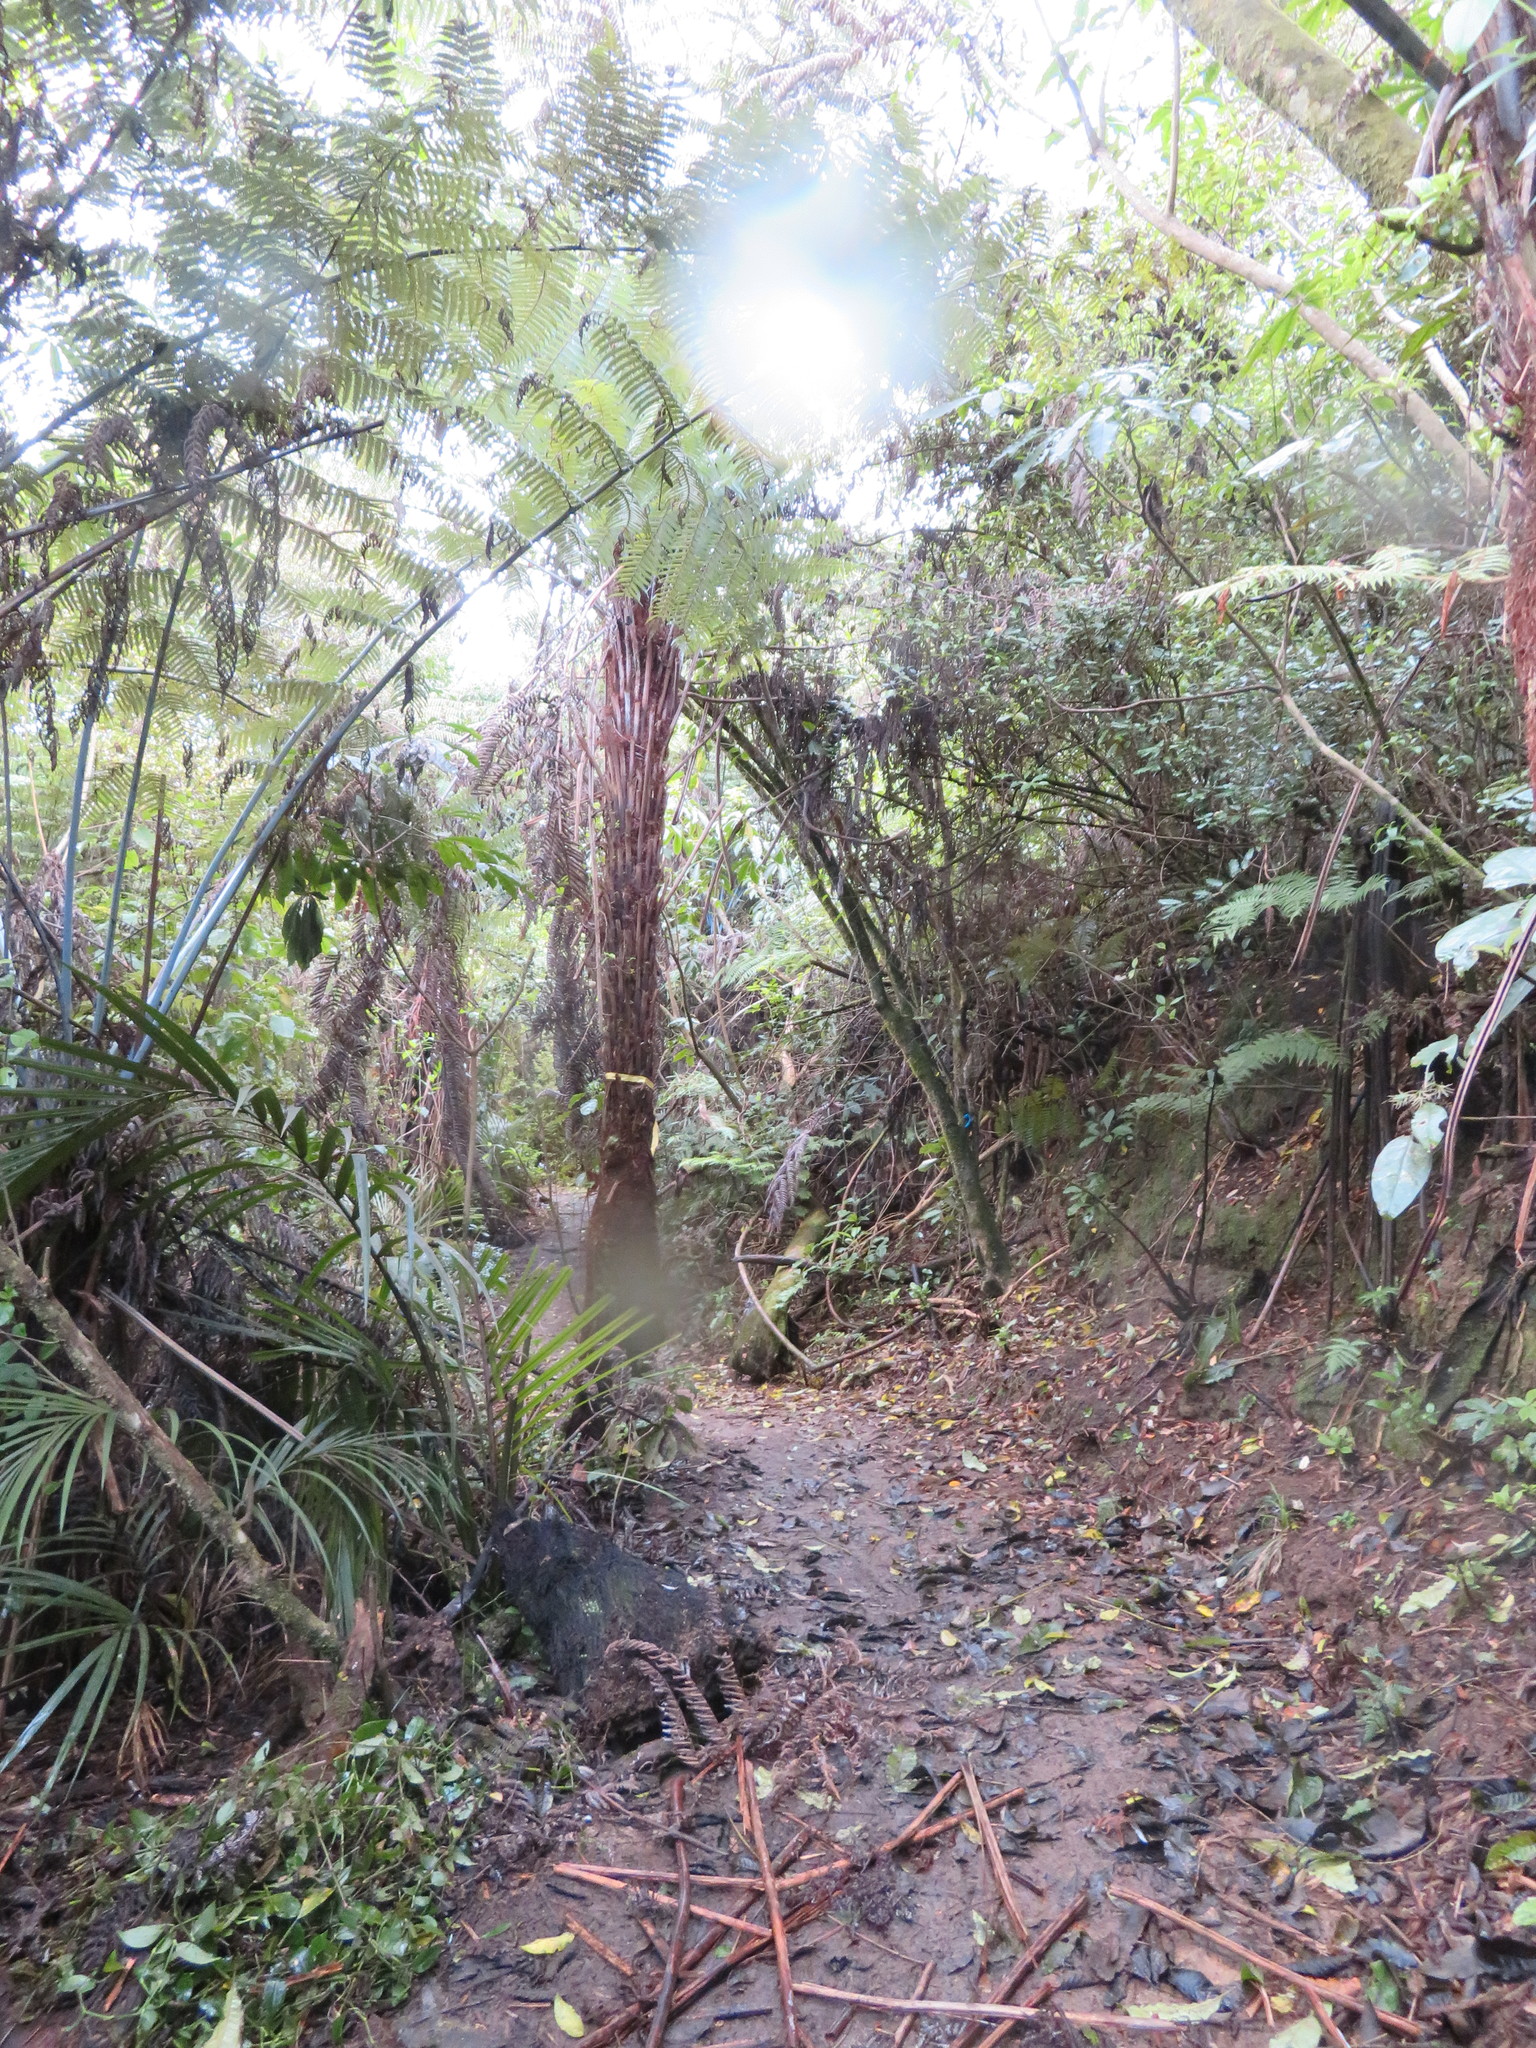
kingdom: Plantae
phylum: Tracheophyta
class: Liliopsida
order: Commelinales
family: Commelinaceae
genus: Tradescantia
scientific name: Tradescantia fluminensis
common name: Wandering-jew
